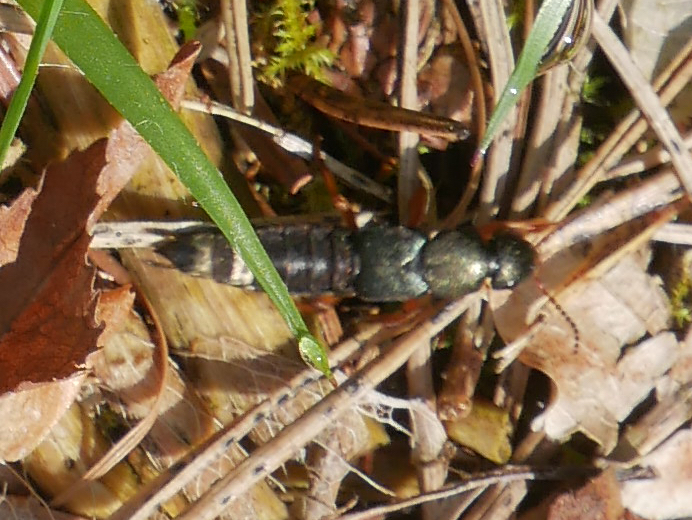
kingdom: Animalia
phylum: Arthropoda
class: Insecta
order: Coleoptera
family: Staphylinidae
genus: Platydracus
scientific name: Platydracus fulvipes
